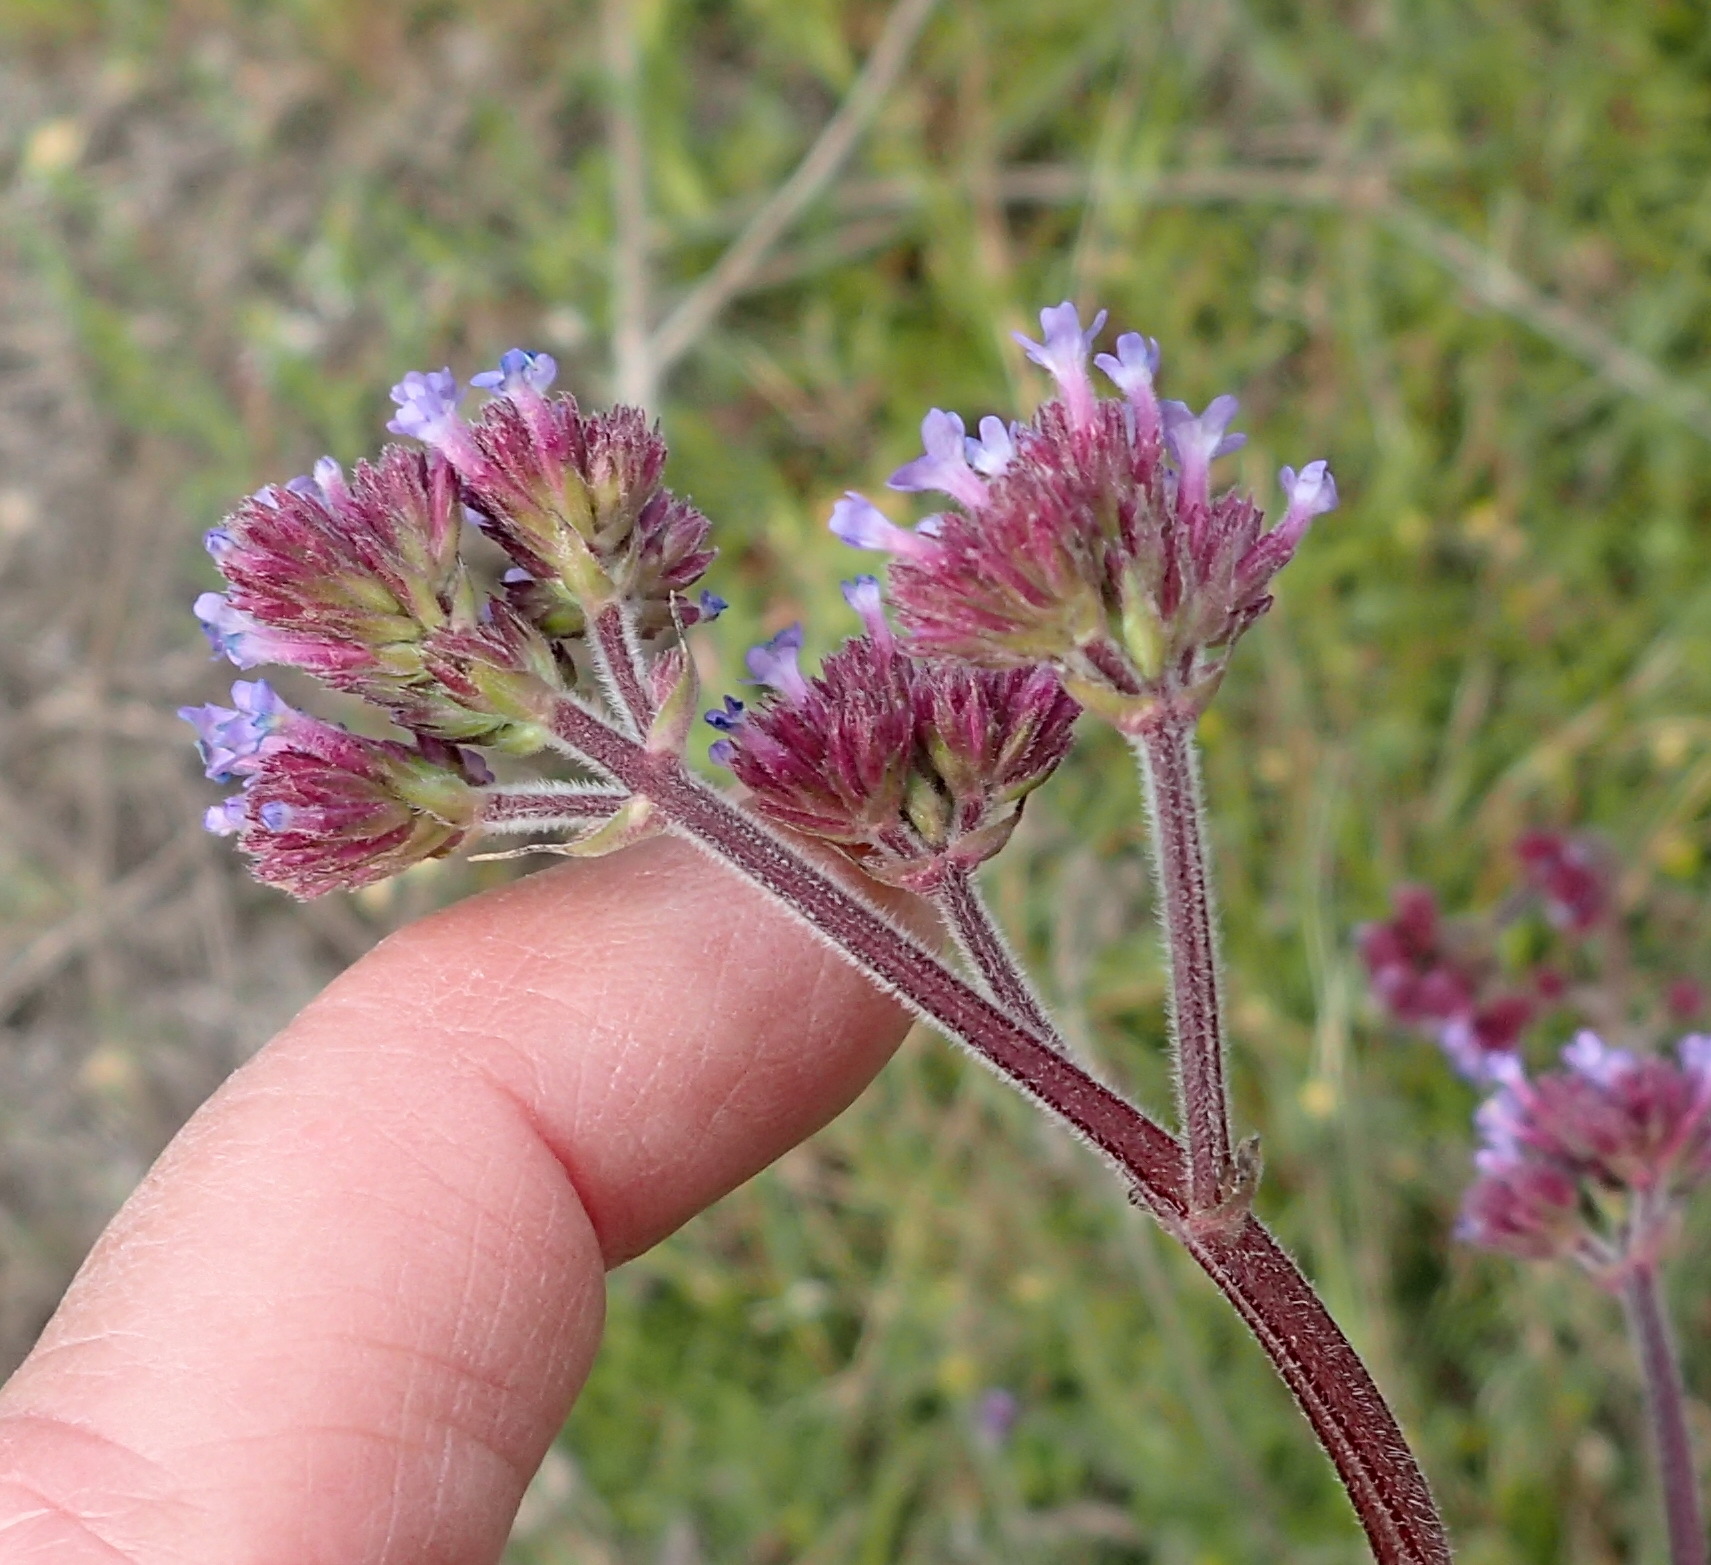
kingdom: Plantae
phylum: Tracheophyta
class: Magnoliopsida
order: Lamiales
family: Verbenaceae
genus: Verbena
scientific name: Verbena bonariensis
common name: Purpletop vervain
